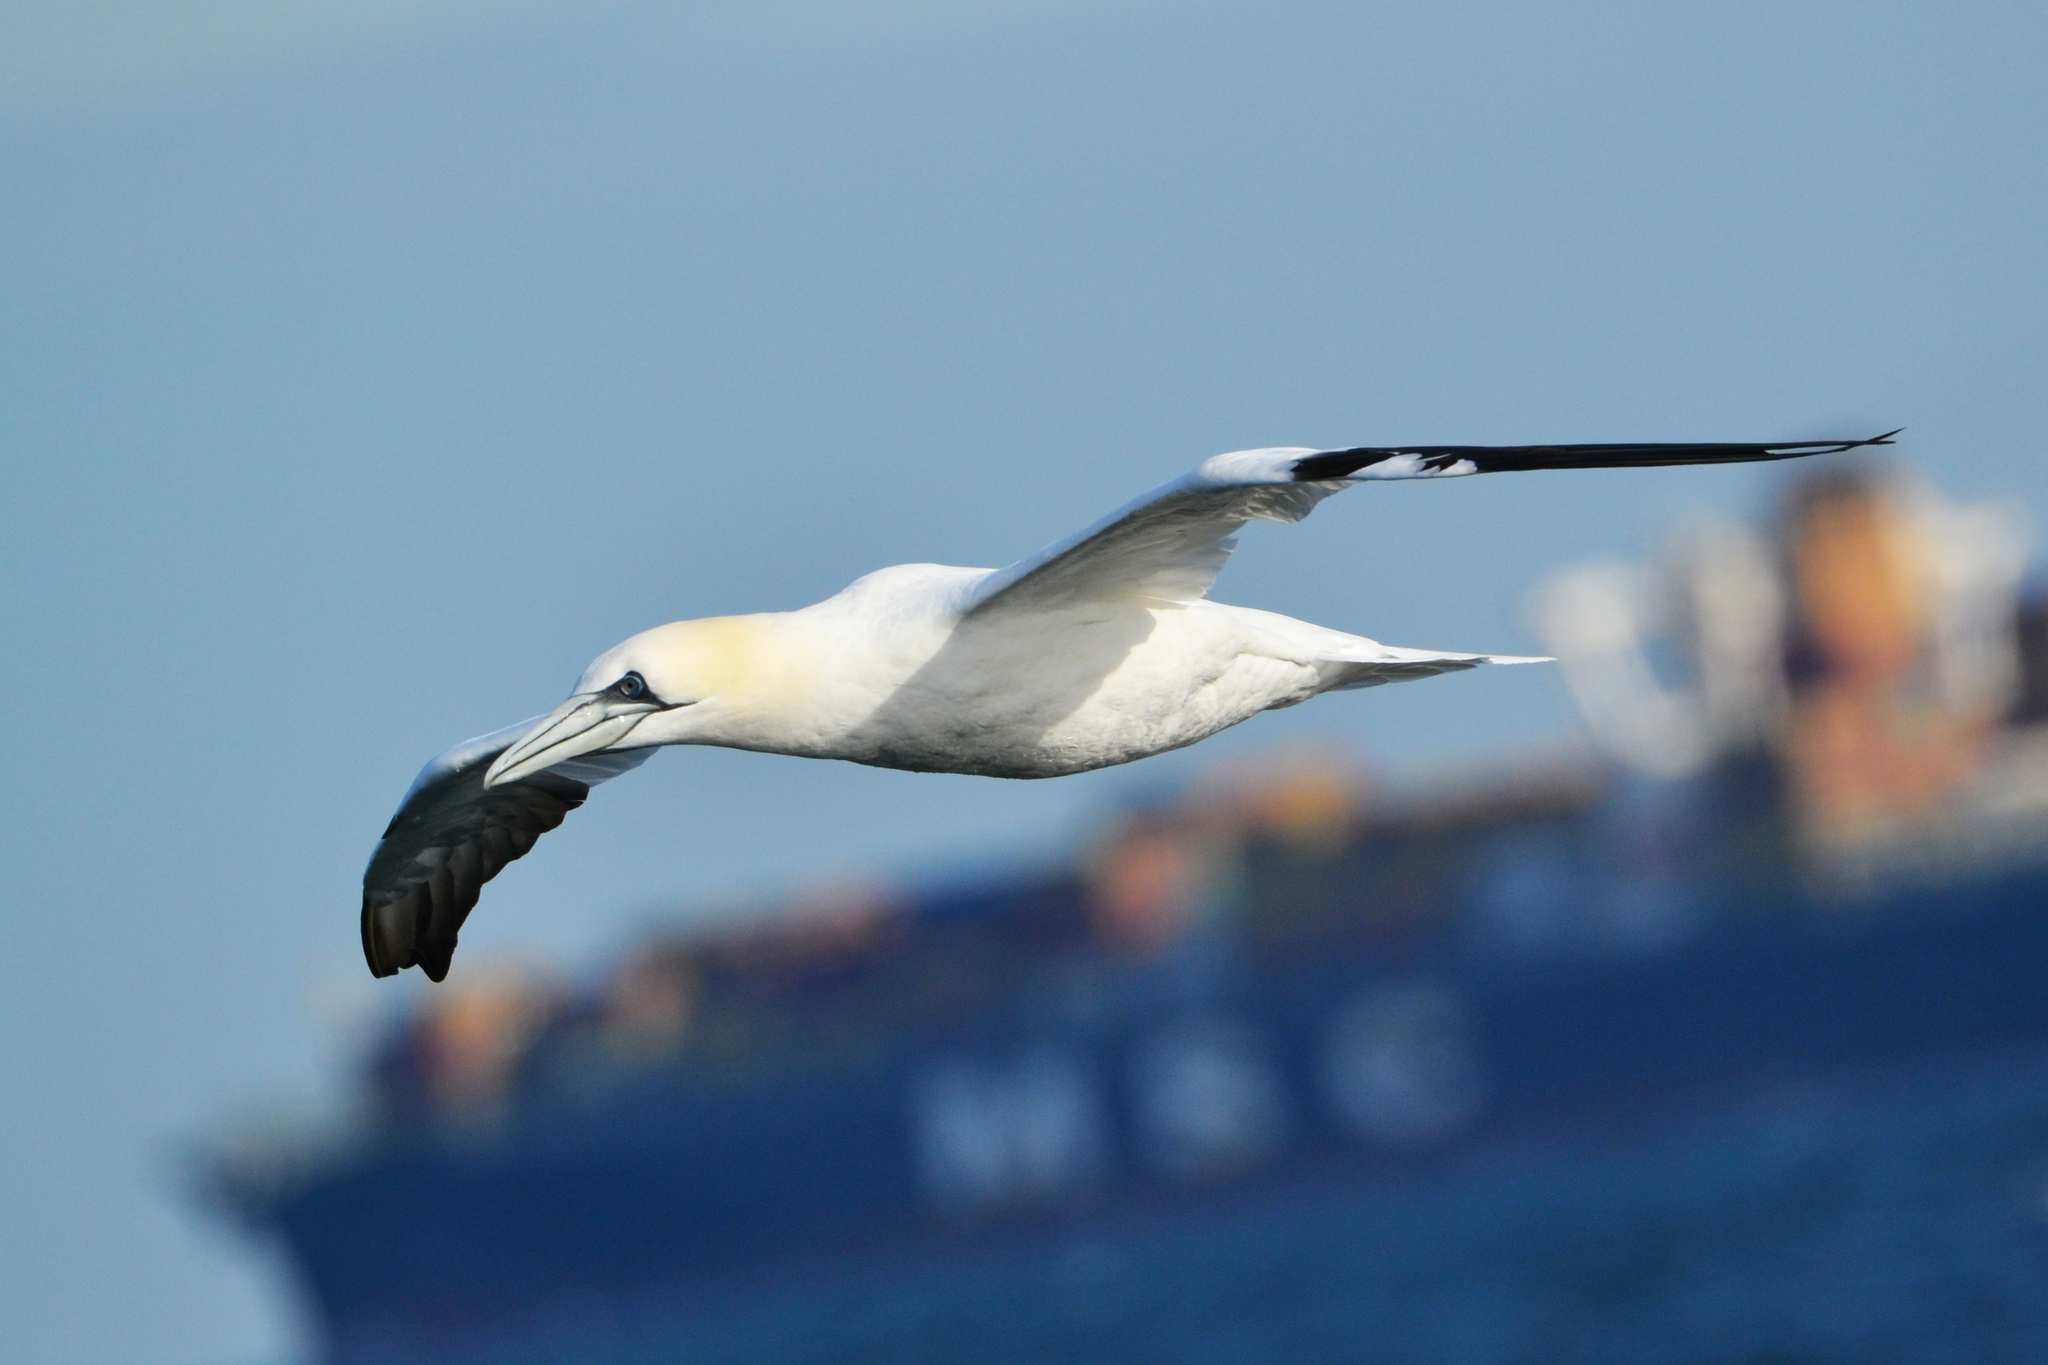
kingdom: Animalia
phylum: Chordata
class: Aves
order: Suliformes
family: Sulidae
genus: Morus
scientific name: Morus bassanus
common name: Northern gannet
